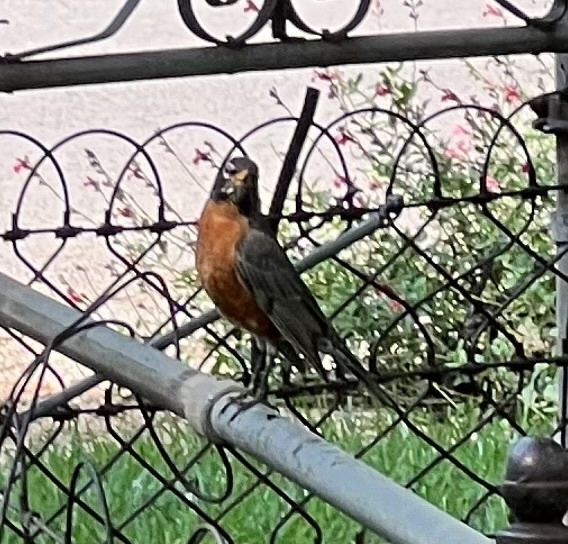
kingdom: Animalia
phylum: Chordata
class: Aves
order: Passeriformes
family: Turdidae
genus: Turdus
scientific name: Turdus migratorius
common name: American robin
